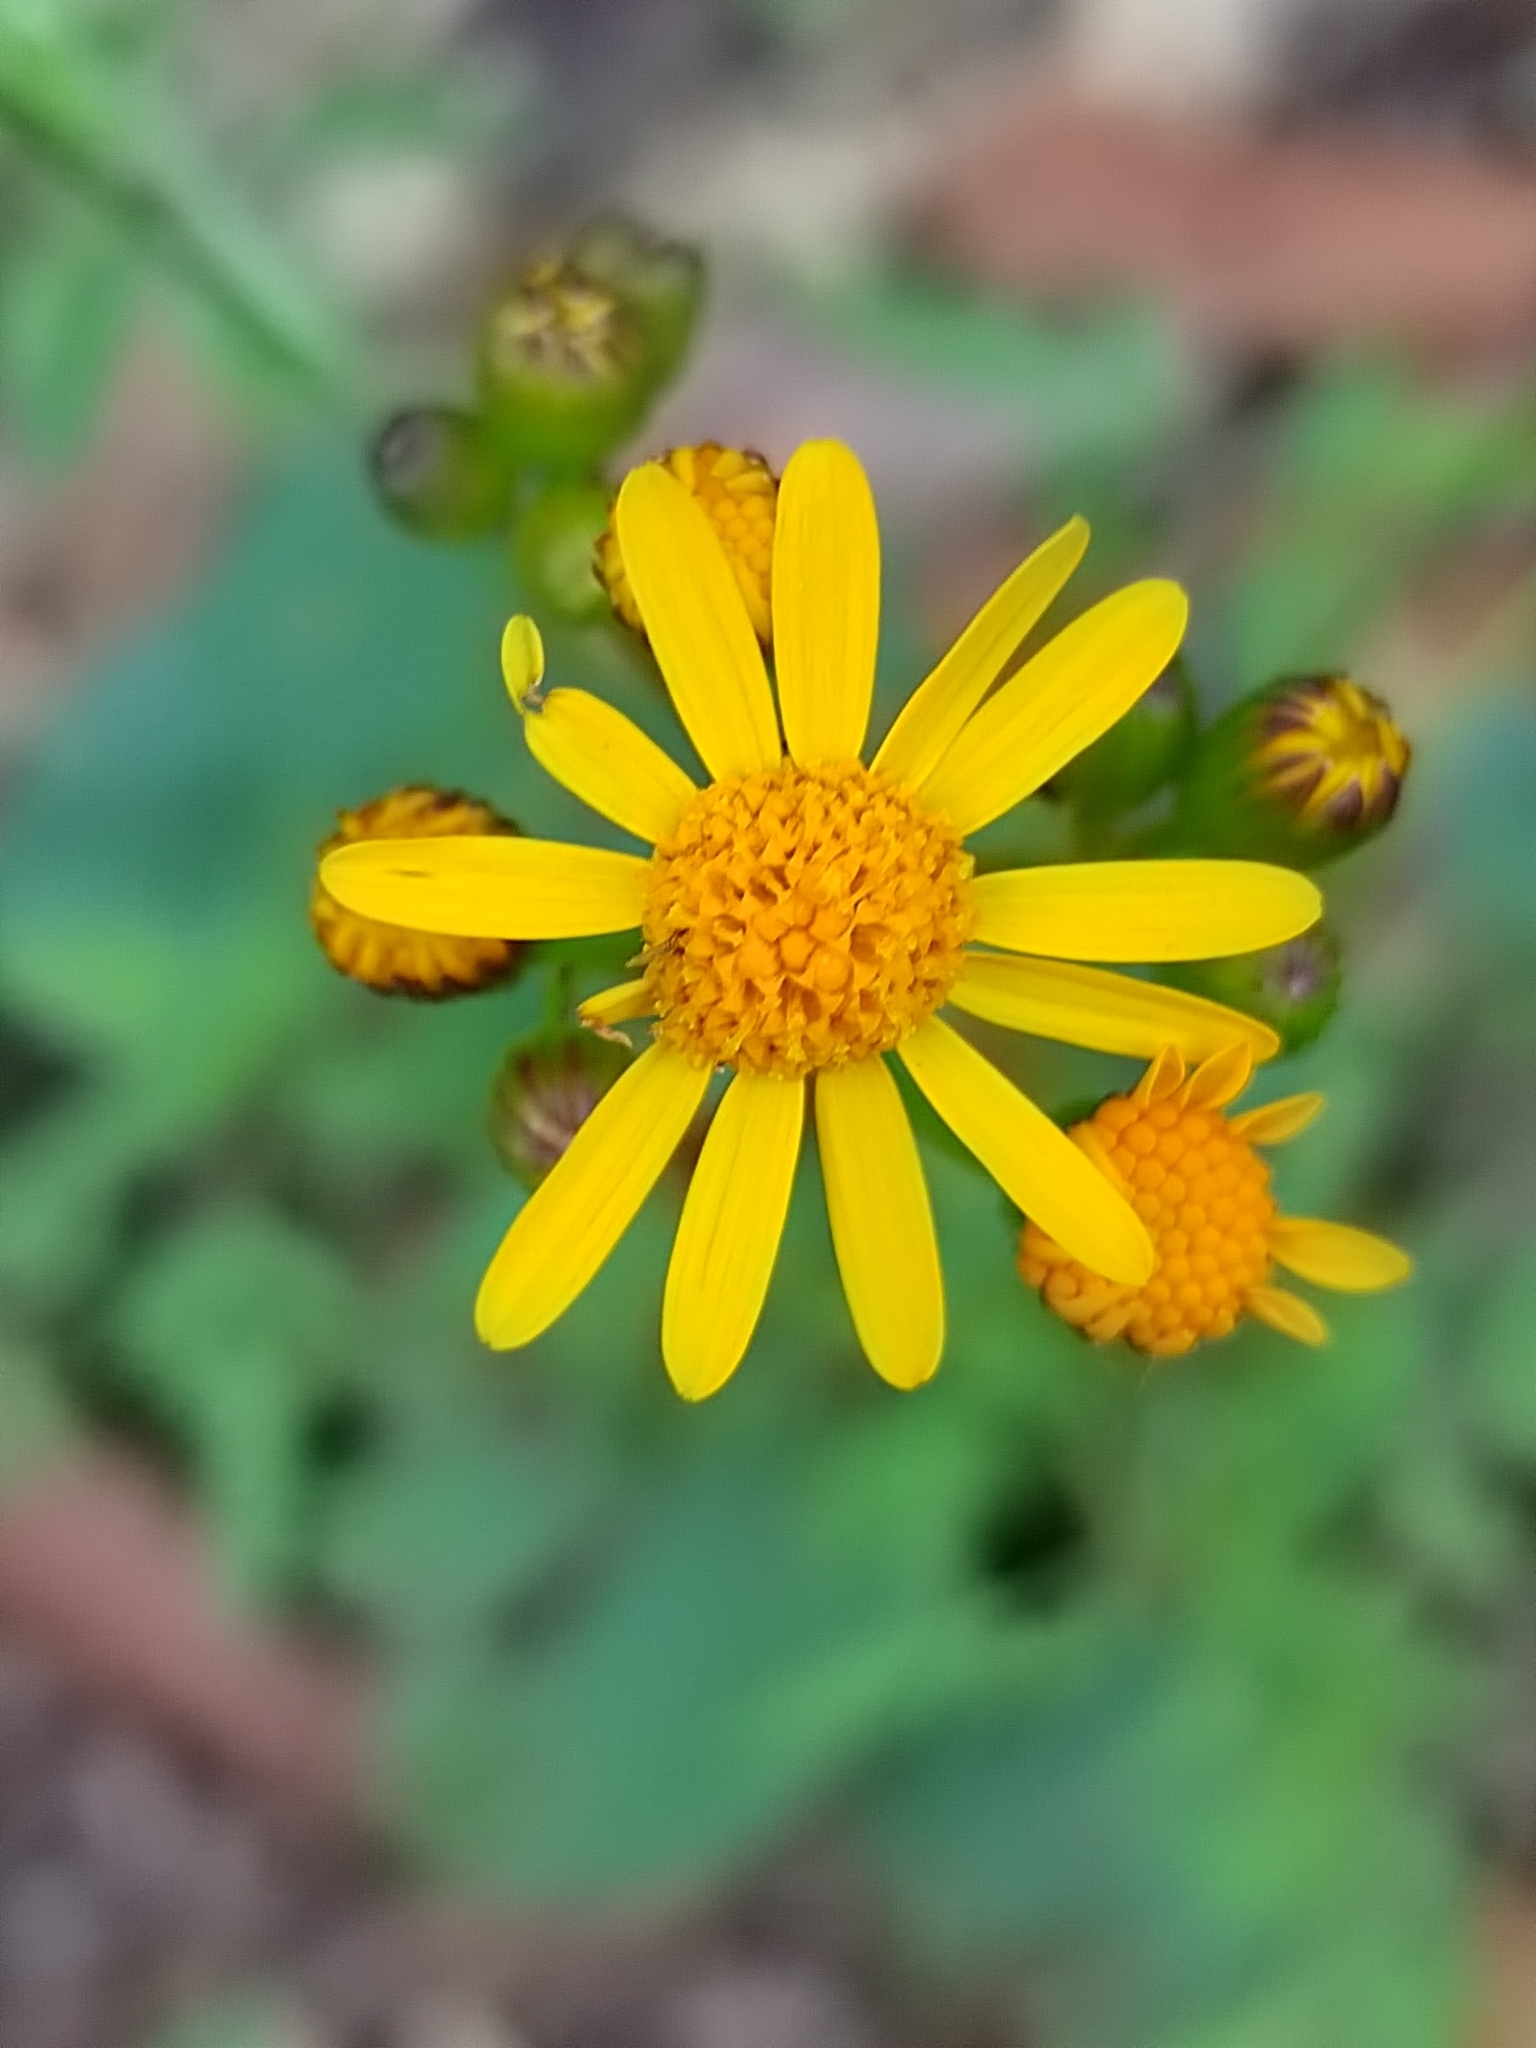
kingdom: Plantae
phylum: Tracheophyta
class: Magnoliopsida
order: Asterales
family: Asteraceae
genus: Packera
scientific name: Packera coahuilensis
